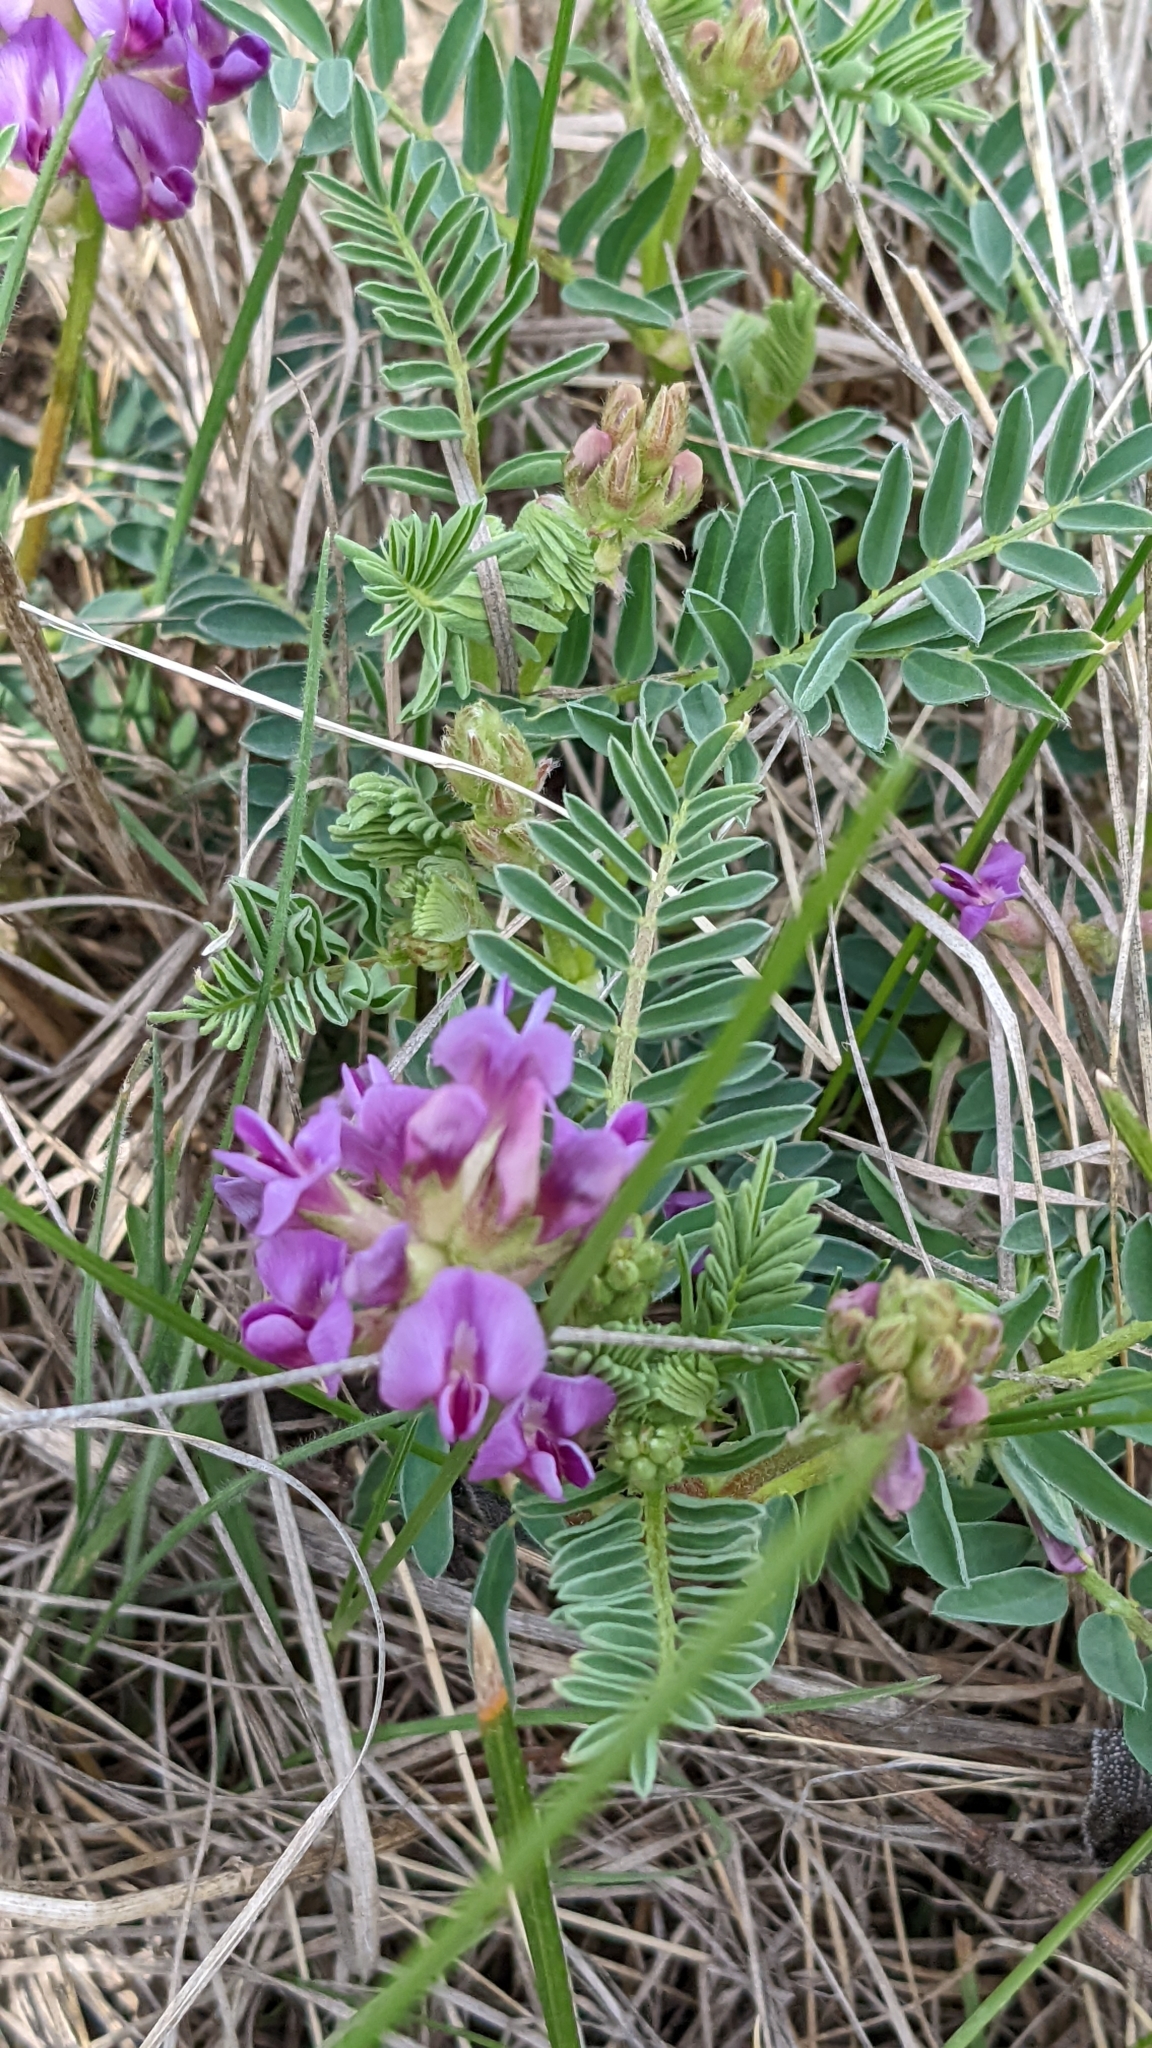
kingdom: Plantae
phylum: Tracheophyta
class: Magnoliopsida
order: Fabales
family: Fabaceae
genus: Astragalus
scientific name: Astragalus crassicarpus
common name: Ground-plum milk-vetch
